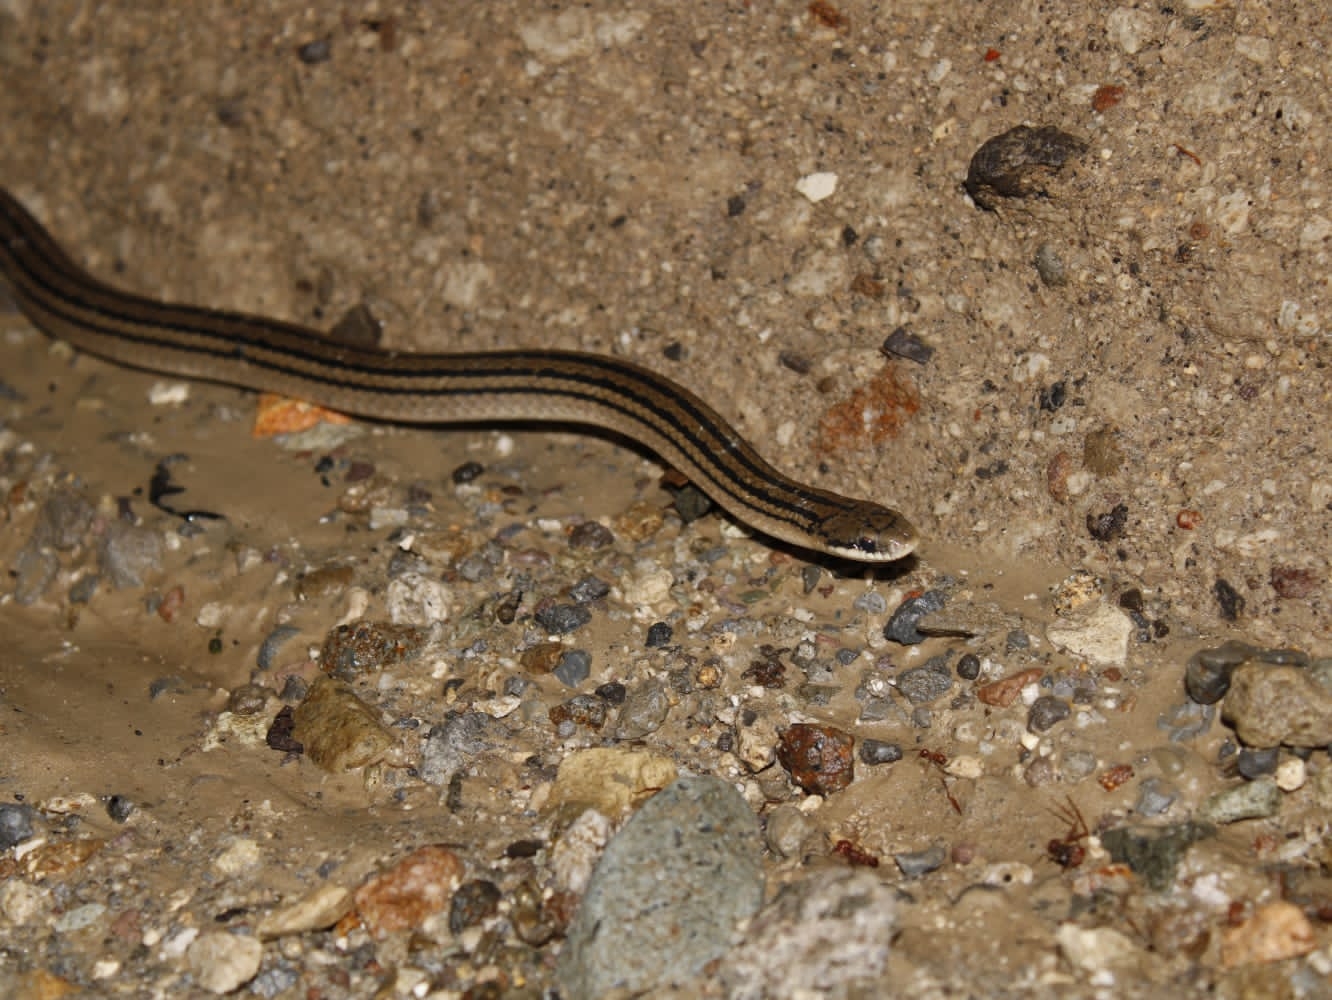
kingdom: Animalia
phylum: Chordata
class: Squamata
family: Colubridae
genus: Stenorrhina
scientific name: Stenorrhina freminvillei
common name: Blood snake
